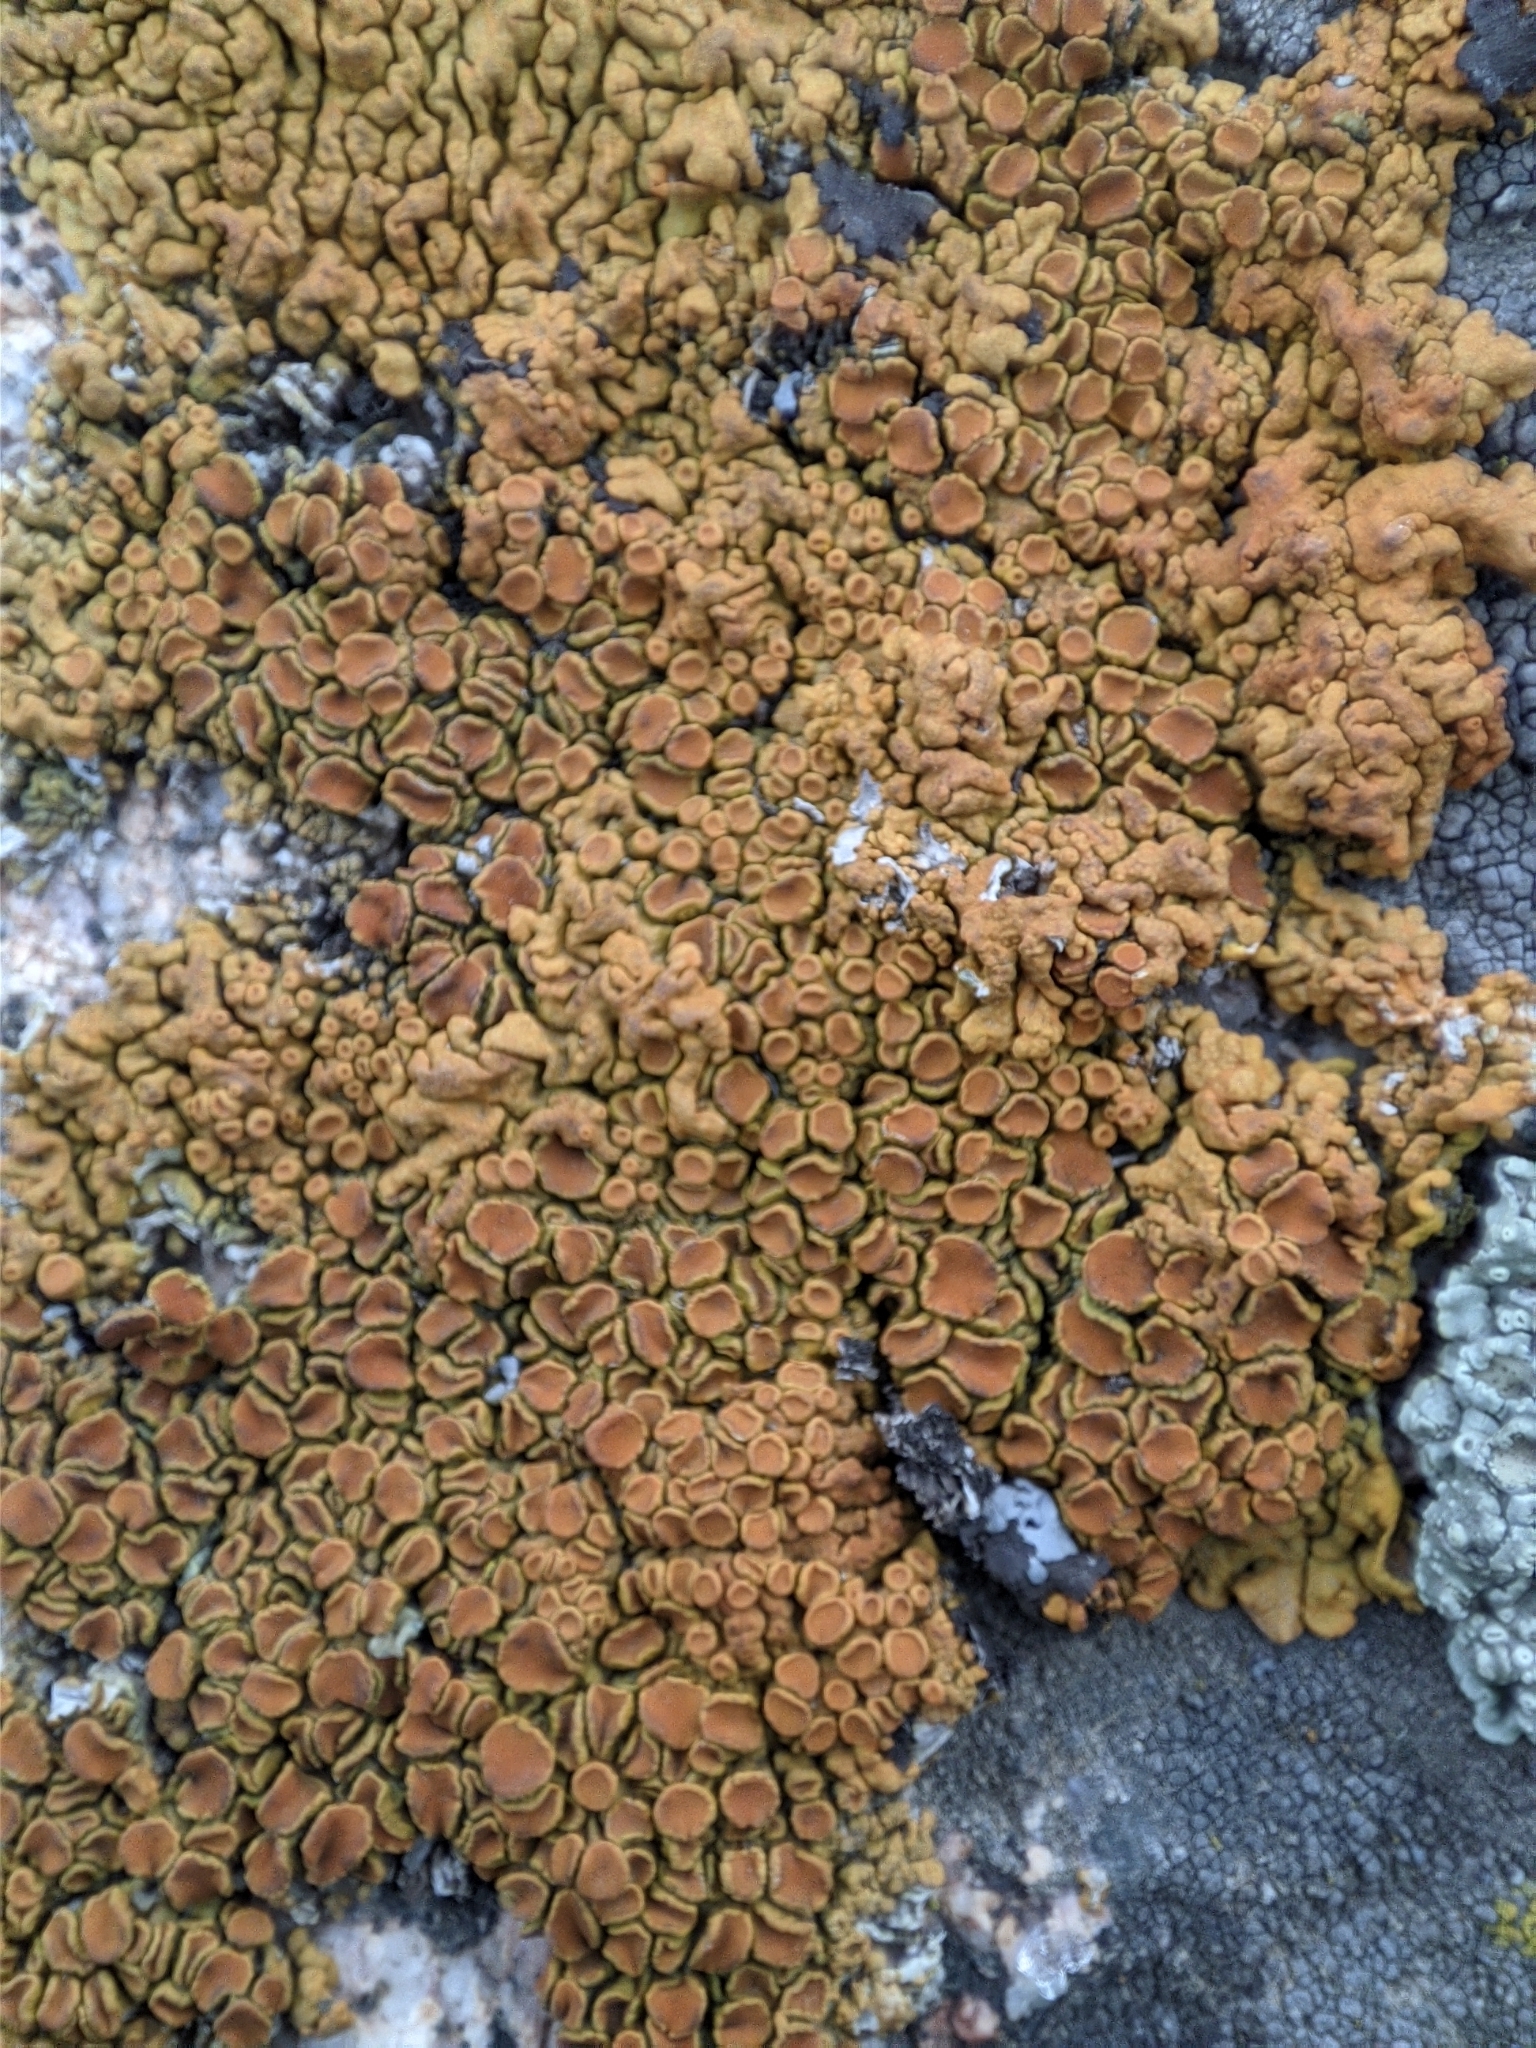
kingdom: Fungi
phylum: Ascomycota
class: Lecanoromycetes
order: Teloschistales
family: Teloschistaceae
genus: Xanthoria
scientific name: Xanthoria elegans
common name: Elegant sunburst lichen
